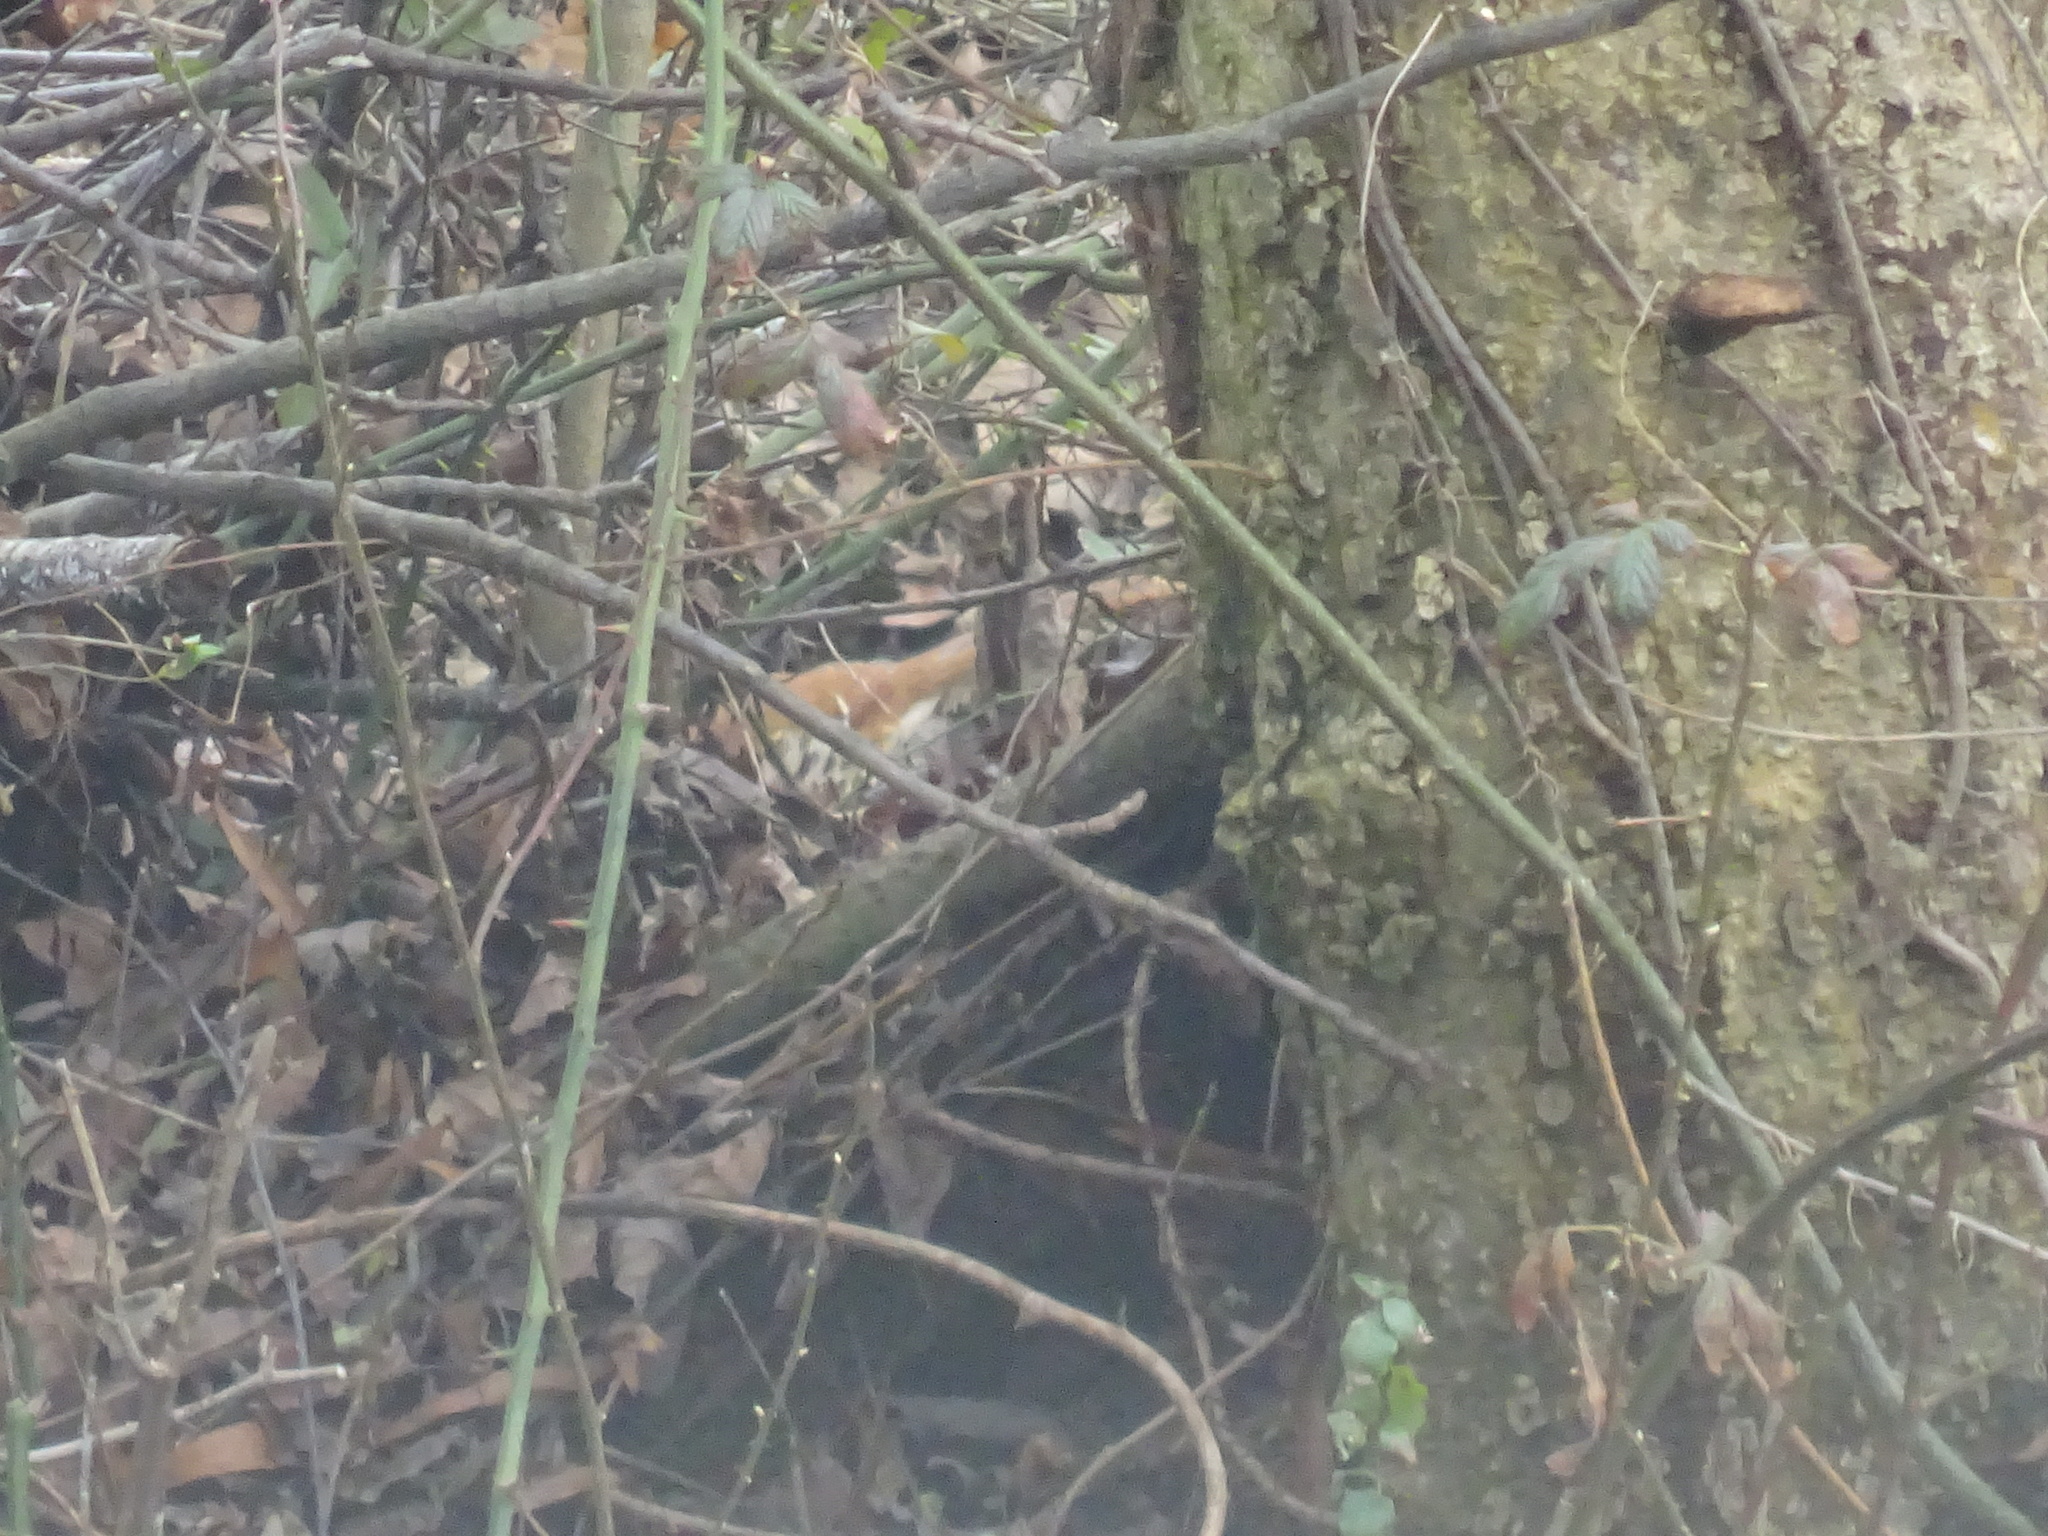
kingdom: Animalia
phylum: Chordata
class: Aves
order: Passeriformes
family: Mimidae
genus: Toxostoma
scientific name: Toxostoma rufum
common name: Brown thrasher
